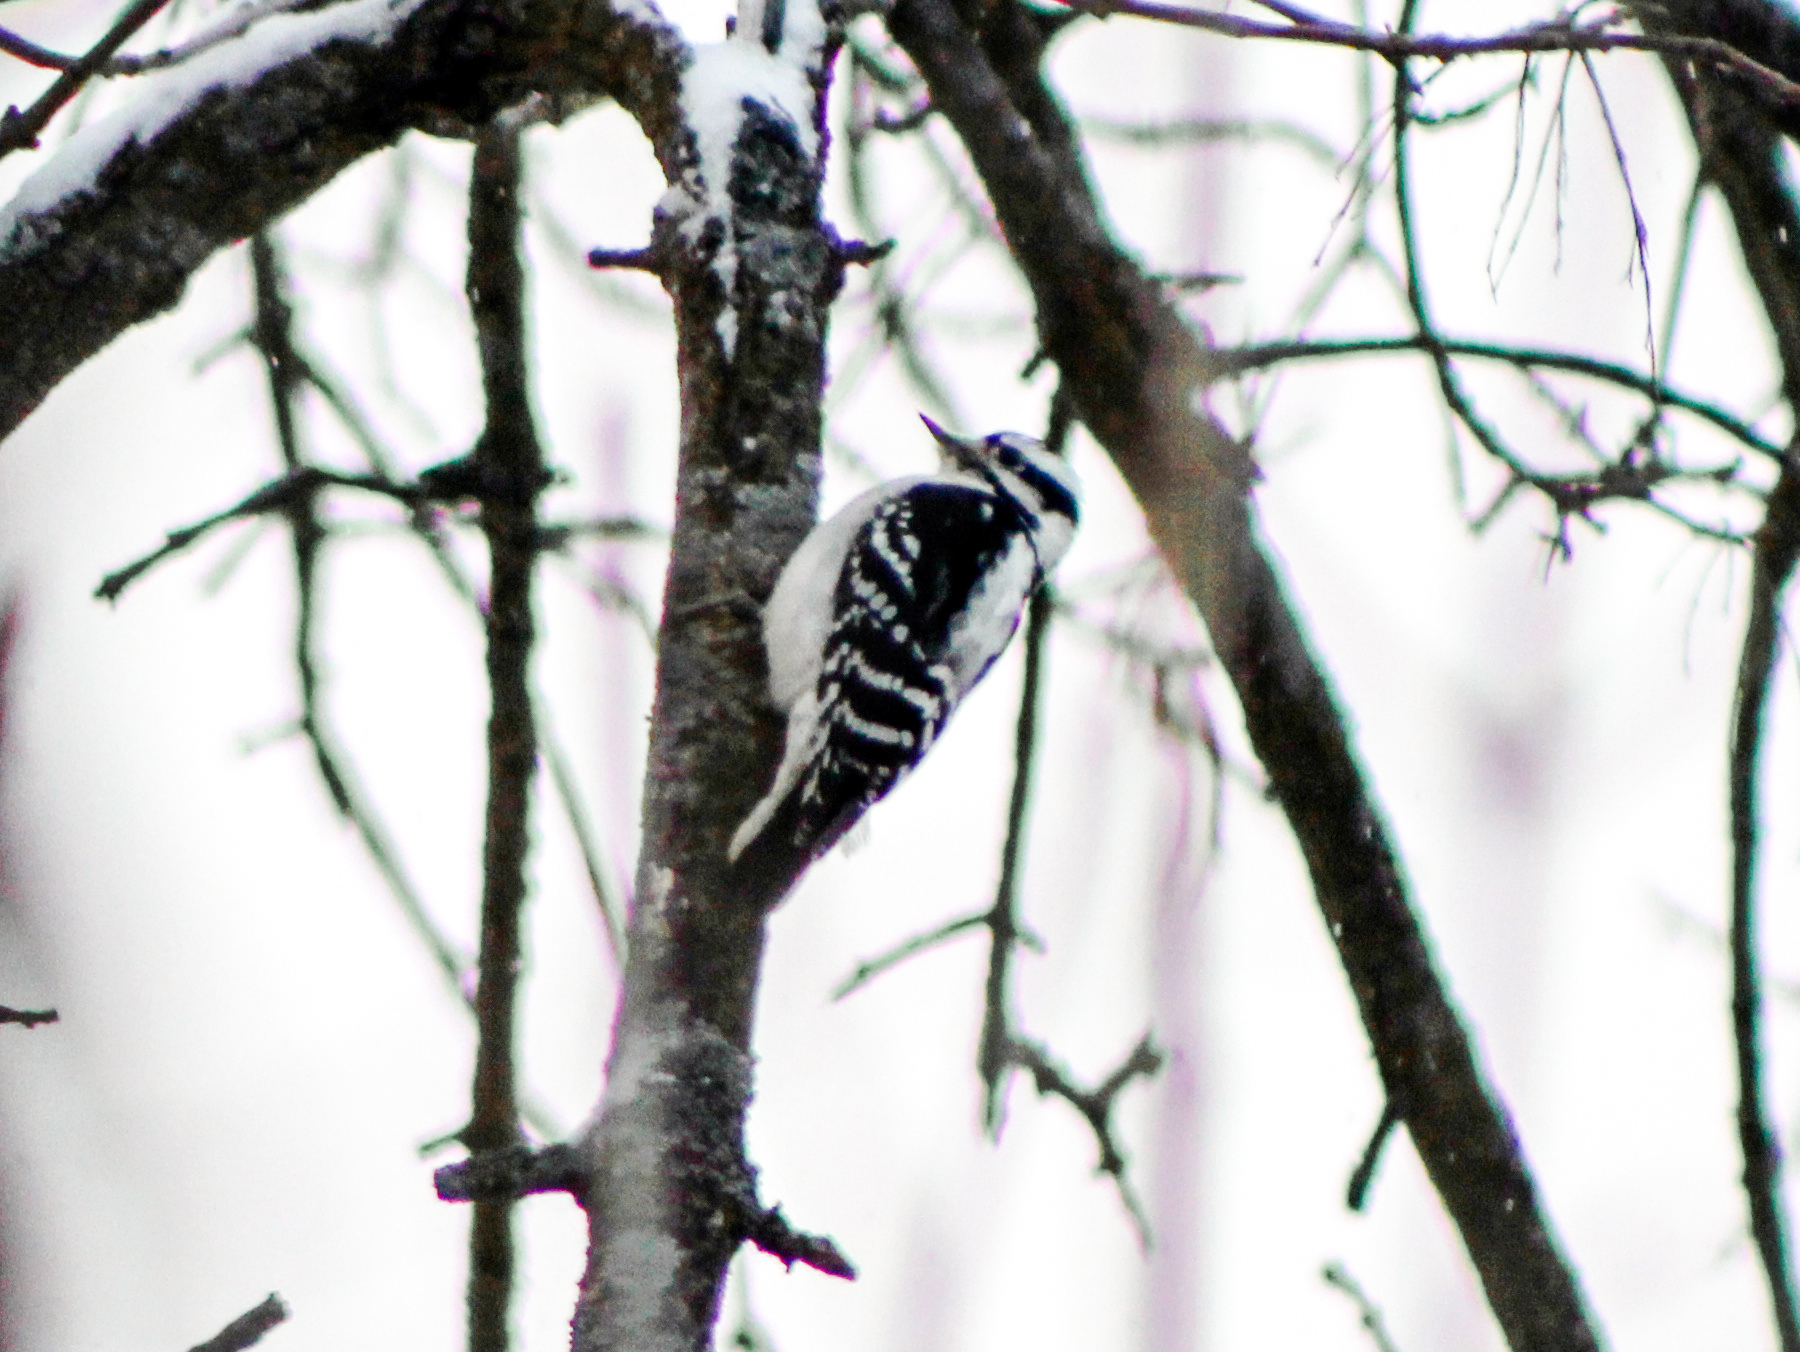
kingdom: Animalia
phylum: Chordata
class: Aves
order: Piciformes
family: Picidae
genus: Dryobates
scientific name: Dryobates pubescens
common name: Downy woodpecker
